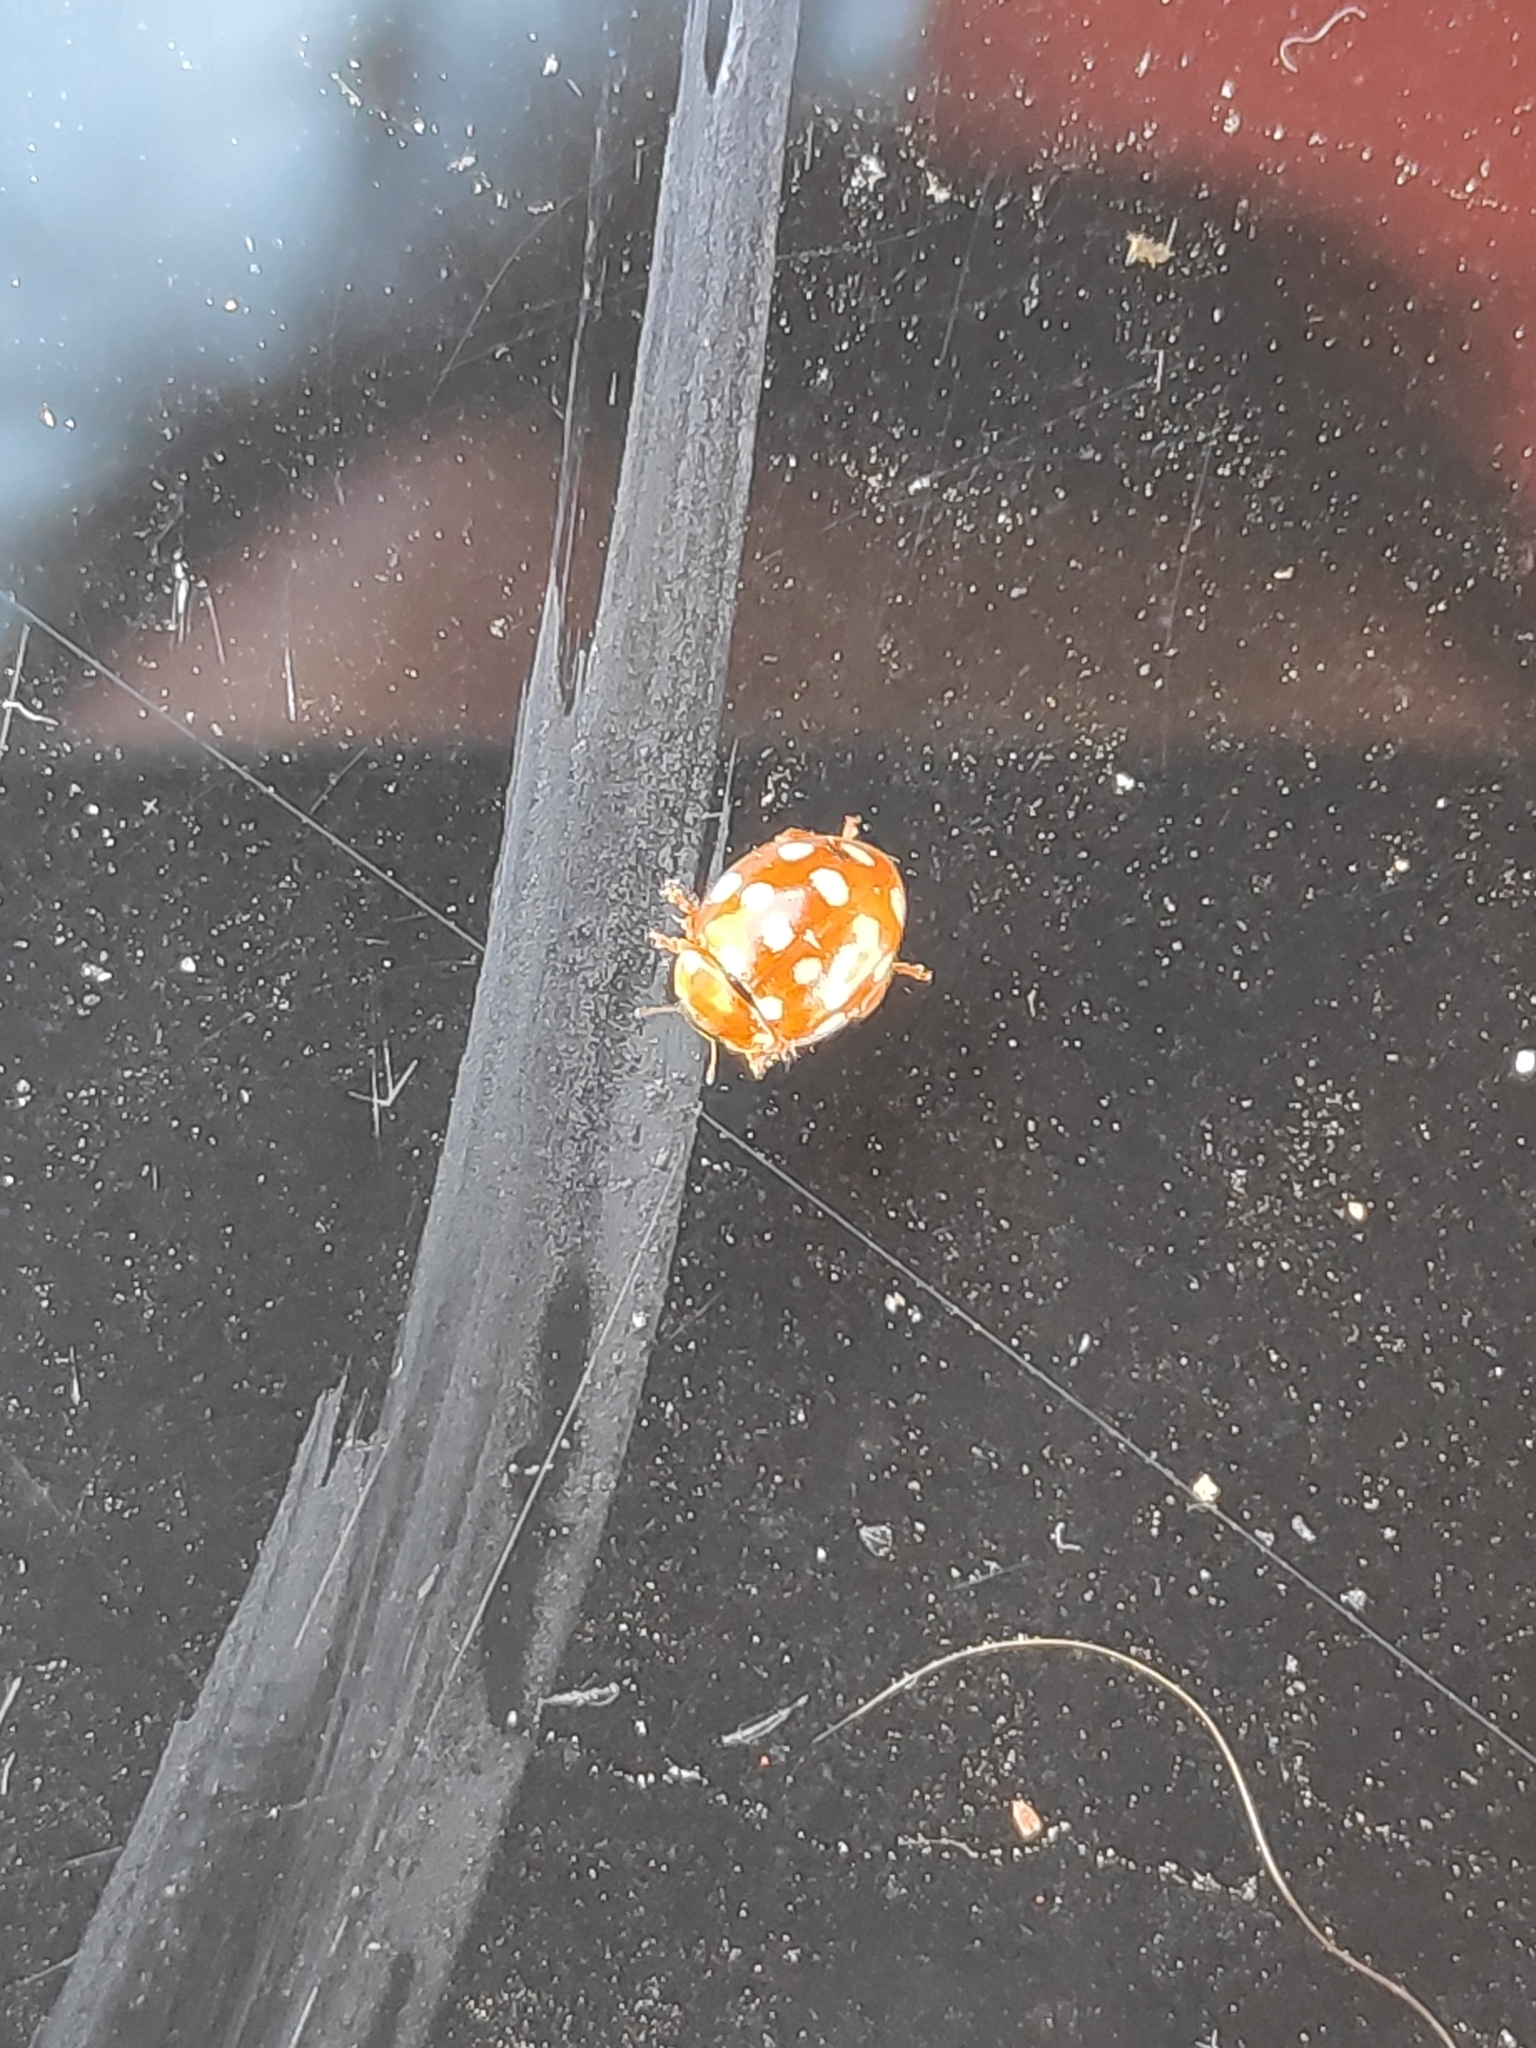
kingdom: Animalia
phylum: Arthropoda
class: Insecta
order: Coleoptera
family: Coccinellidae
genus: Calvia
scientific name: Calvia quatuordecimguttata
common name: Cream-spot ladybird
